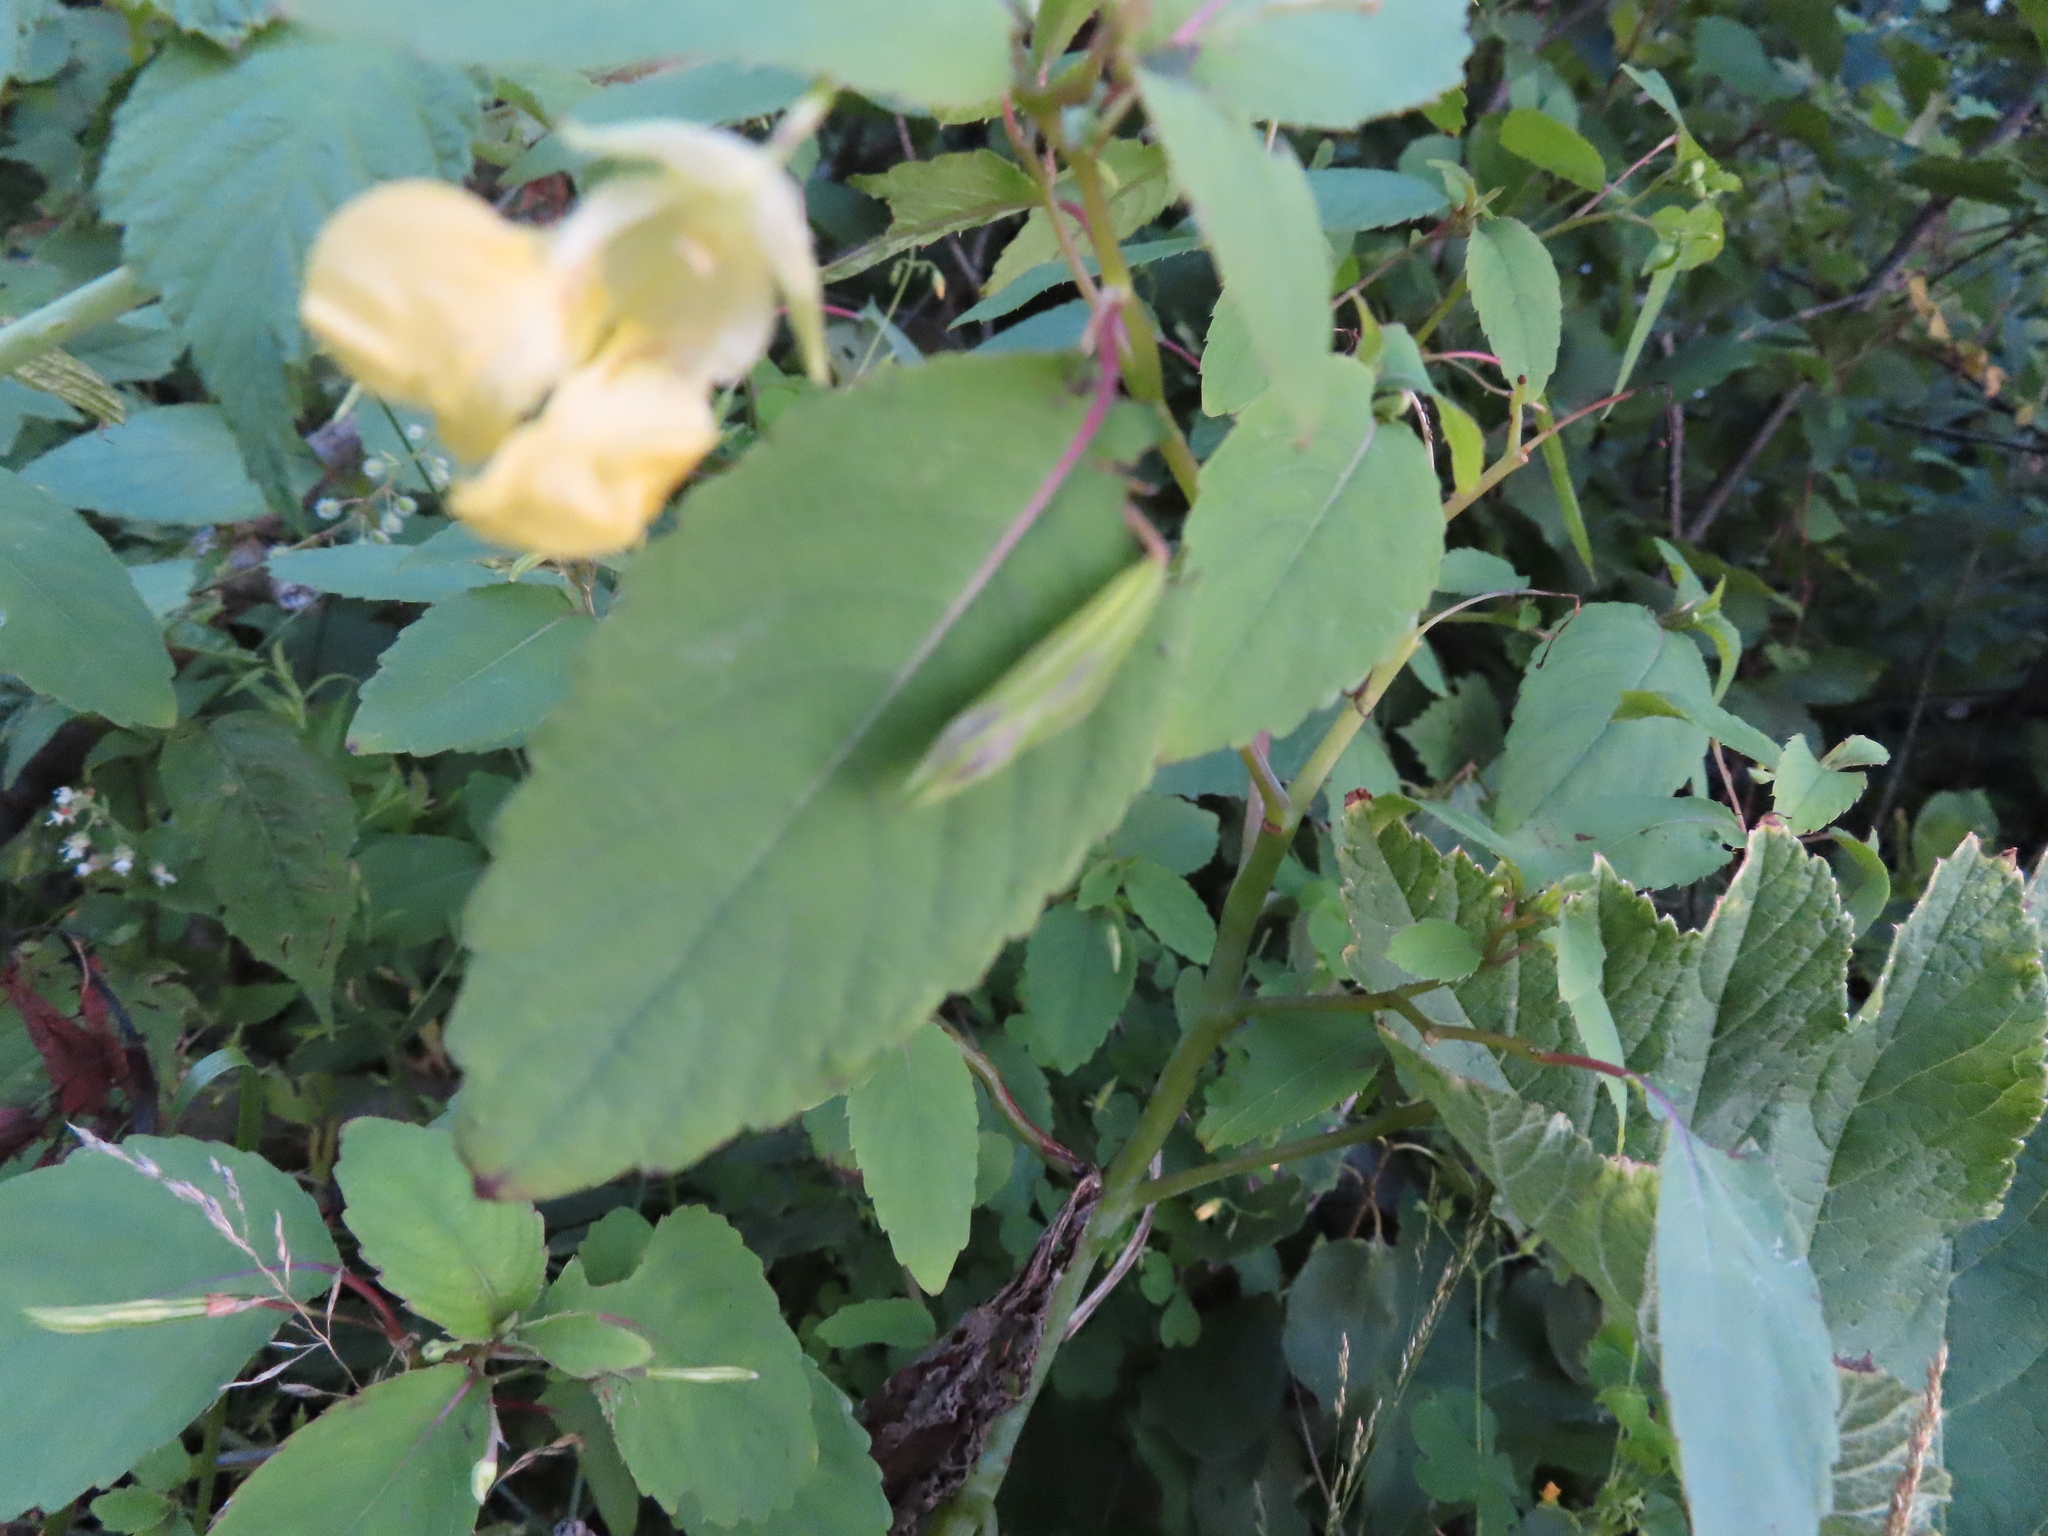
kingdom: Plantae
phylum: Tracheophyta
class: Magnoliopsida
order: Ericales
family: Balsaminaceae
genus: Impatiens
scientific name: Impatiens pallida
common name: Pale snapweed
